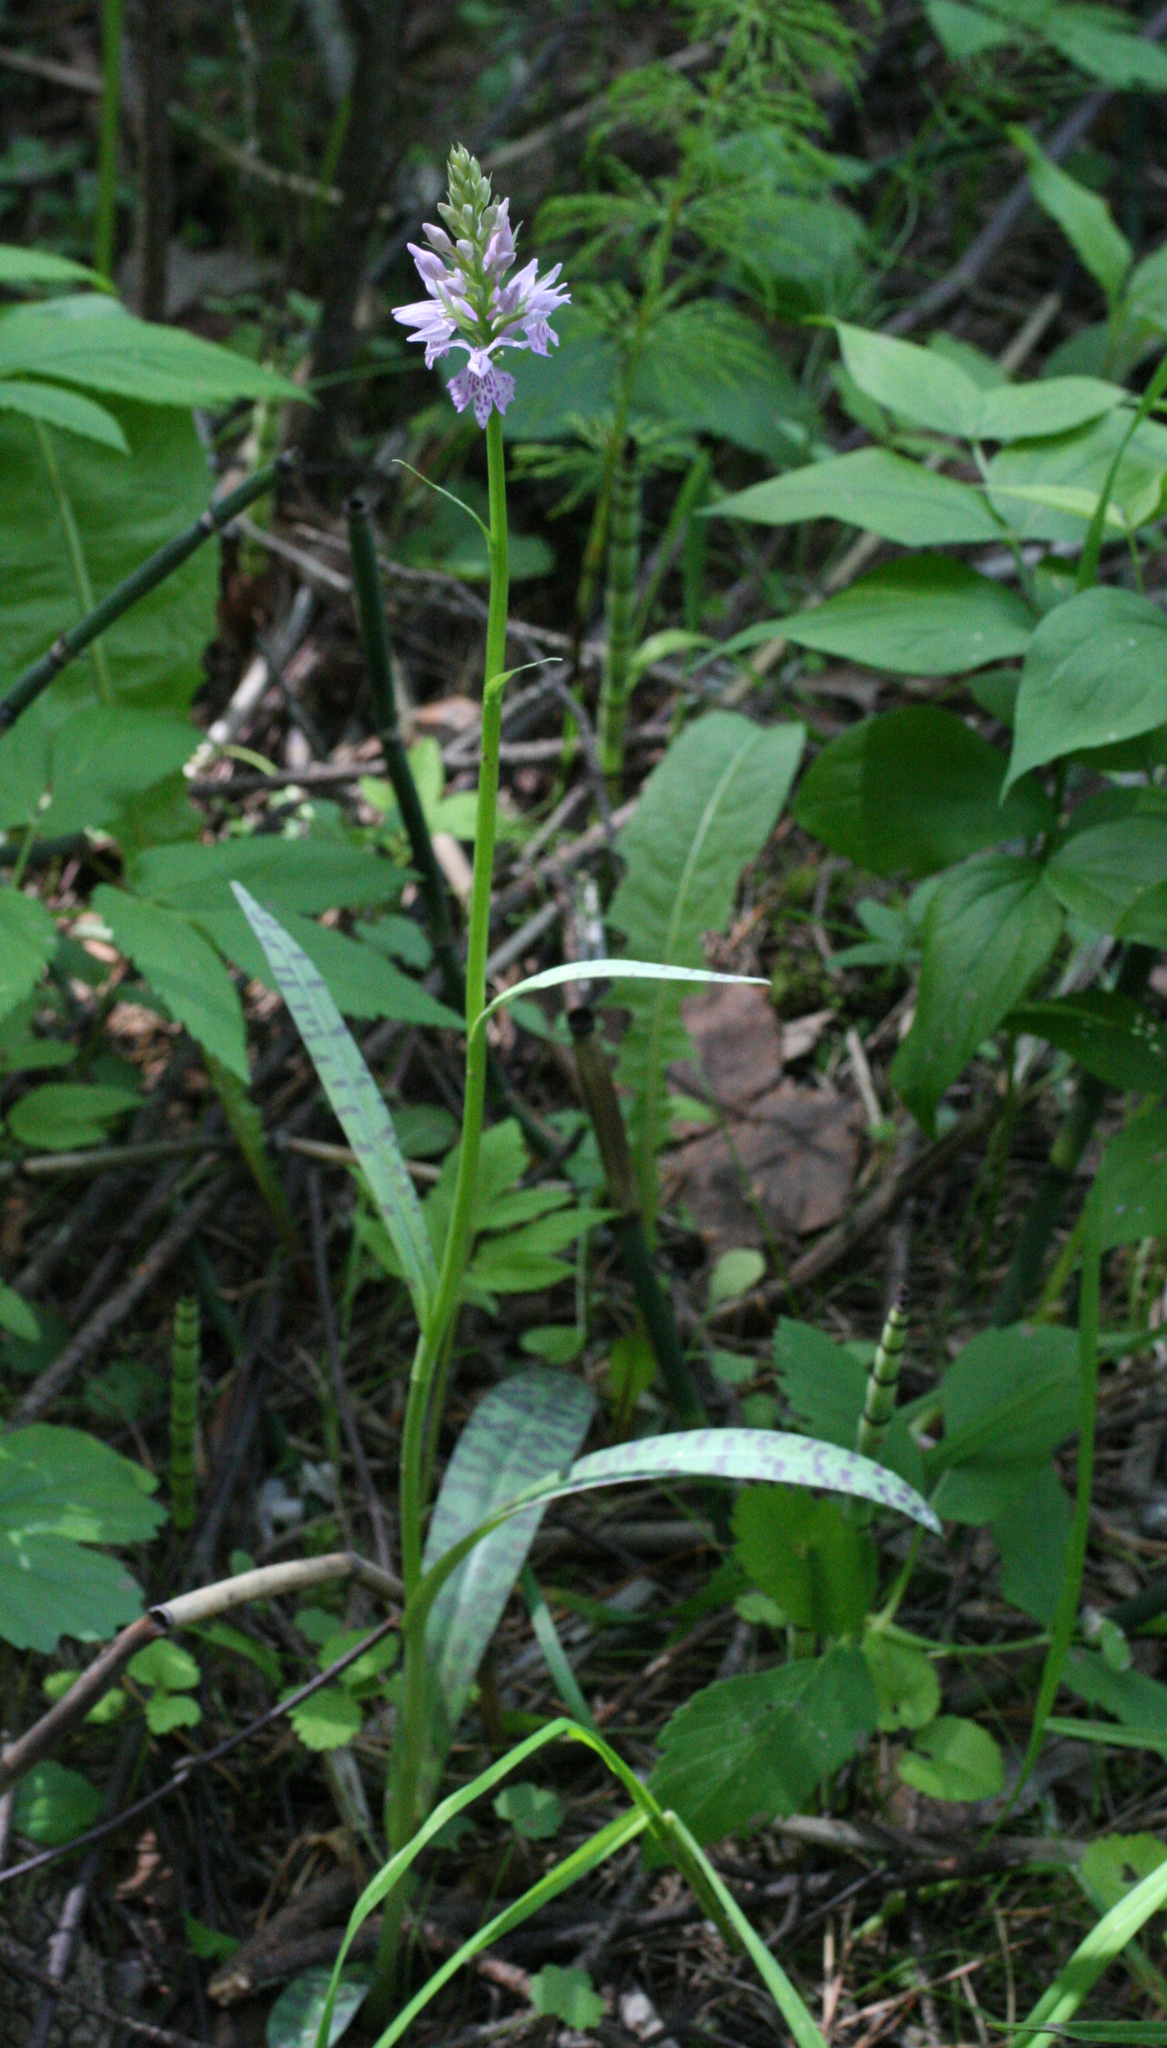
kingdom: Plantae
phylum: Tracheophyta
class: Liliopsida
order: Asparagales
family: Orchidaceae
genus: Dactylorhiza
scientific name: Dactylorhiza maculata
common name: Heath spotted-orchid
